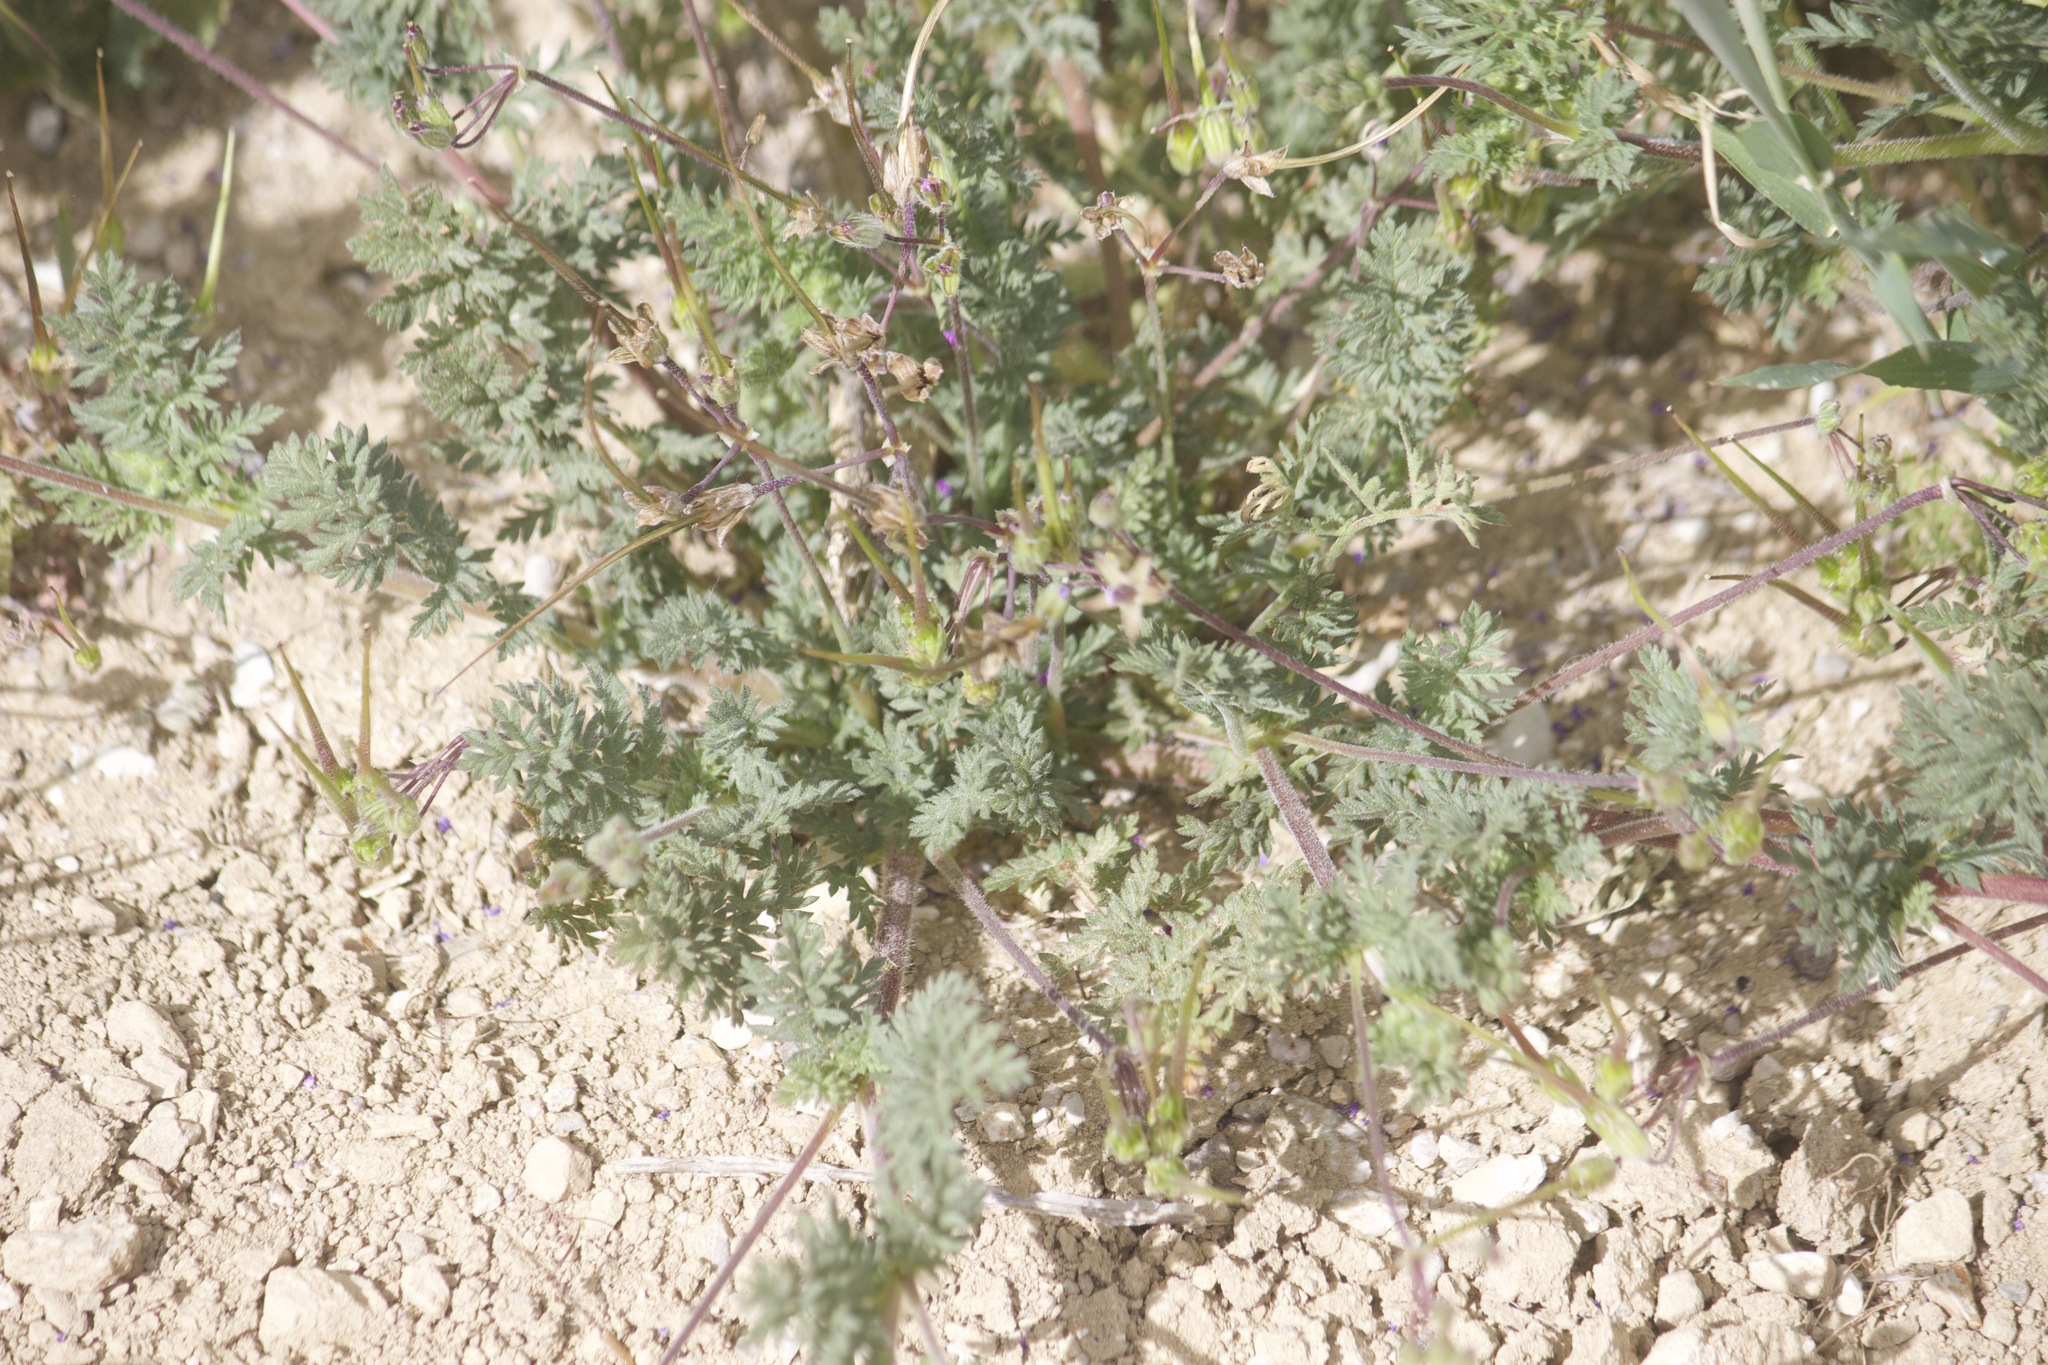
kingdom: Plantae
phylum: Tracheophyta
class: Magnoliopsida
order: Geraniales
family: Geraniaceae
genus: Erodium
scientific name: Erodium cicutarium
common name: Common stork's-bill
